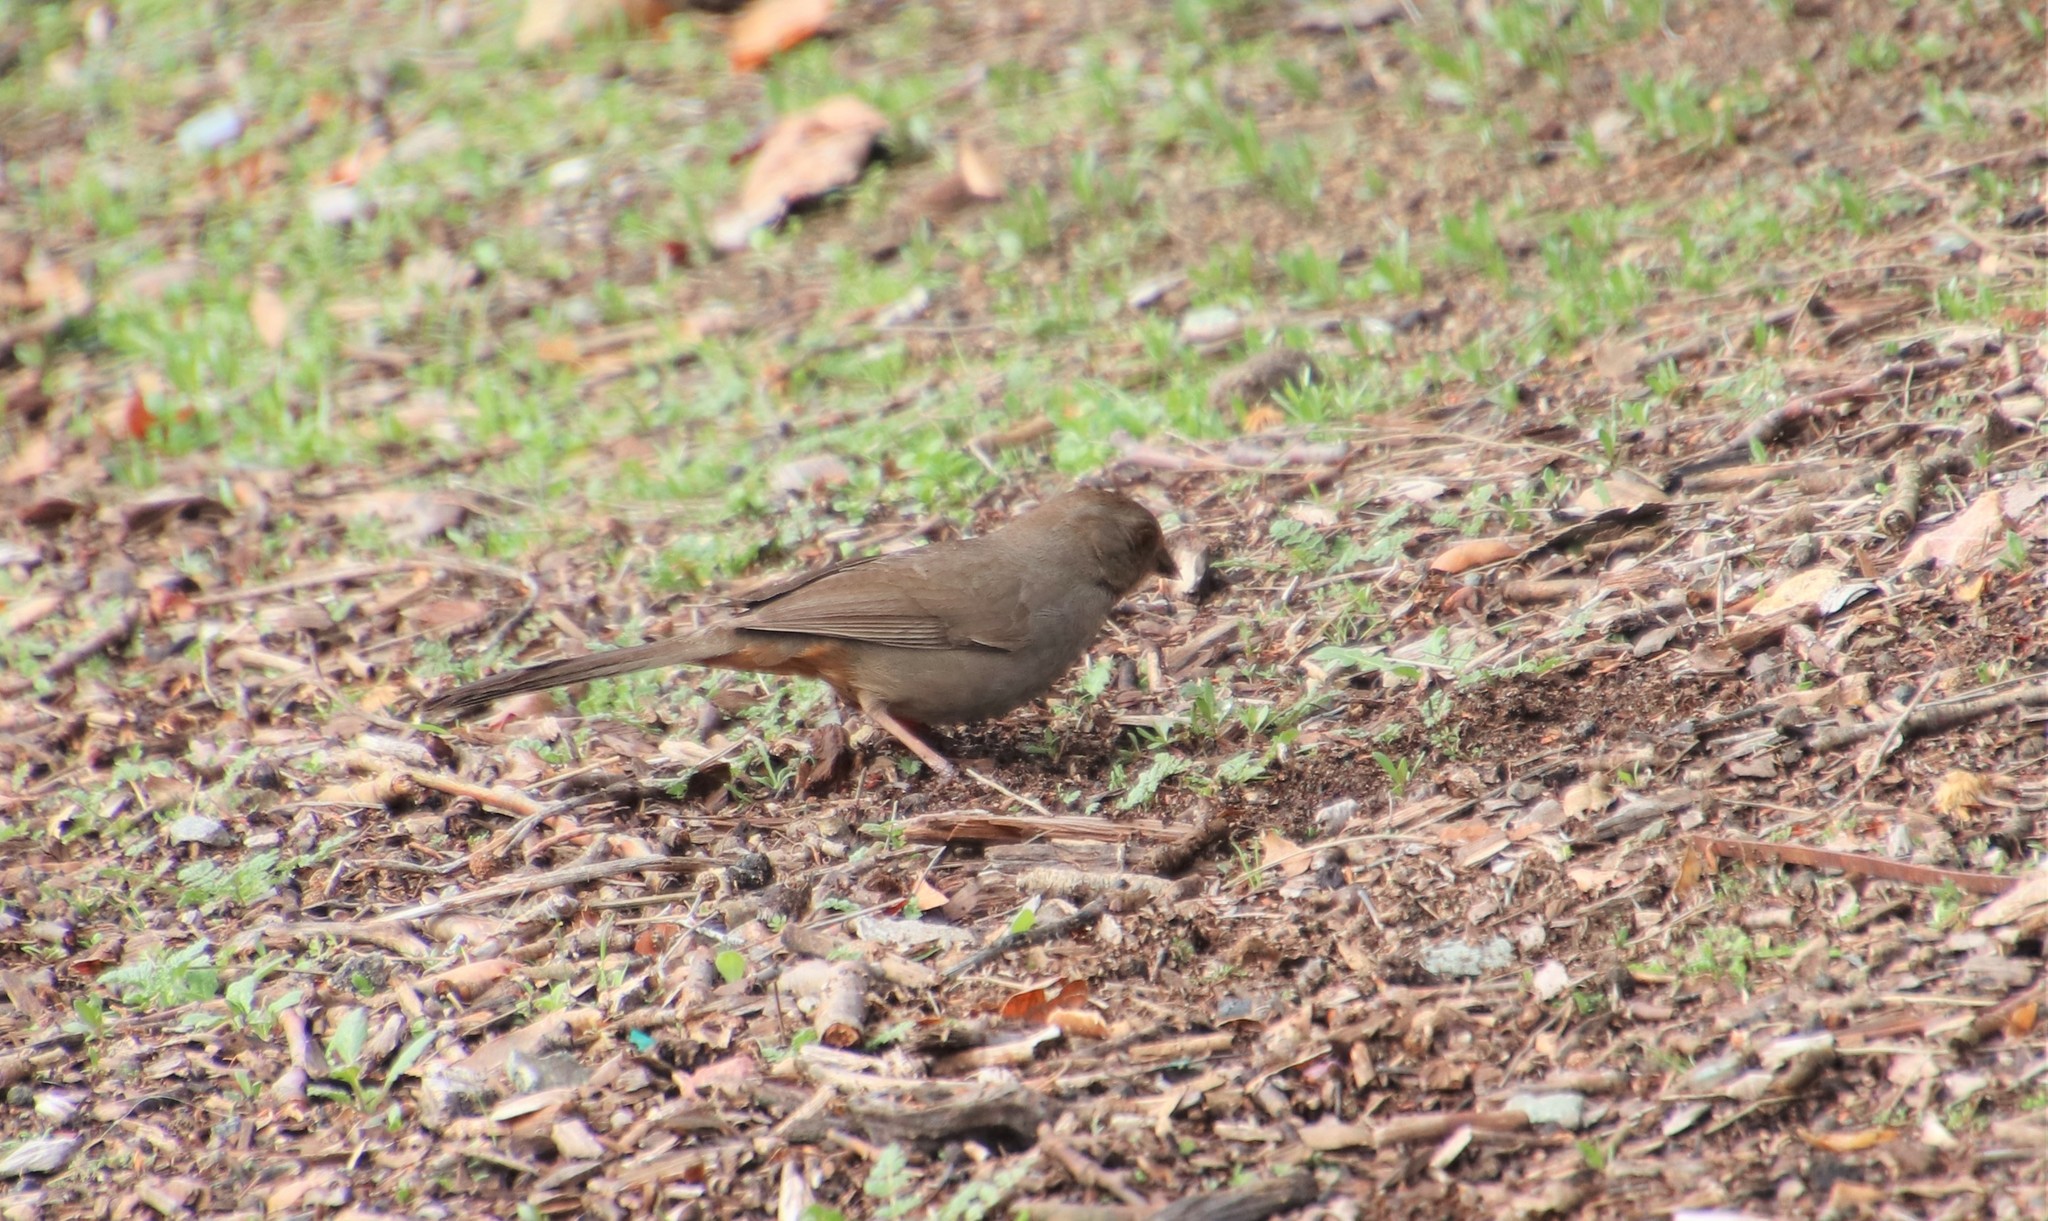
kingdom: Animalia
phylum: Chordata
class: Aves
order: Passeriformes
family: Passerellidae
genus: Melozone
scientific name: Melozone crissalis
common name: California towhee
